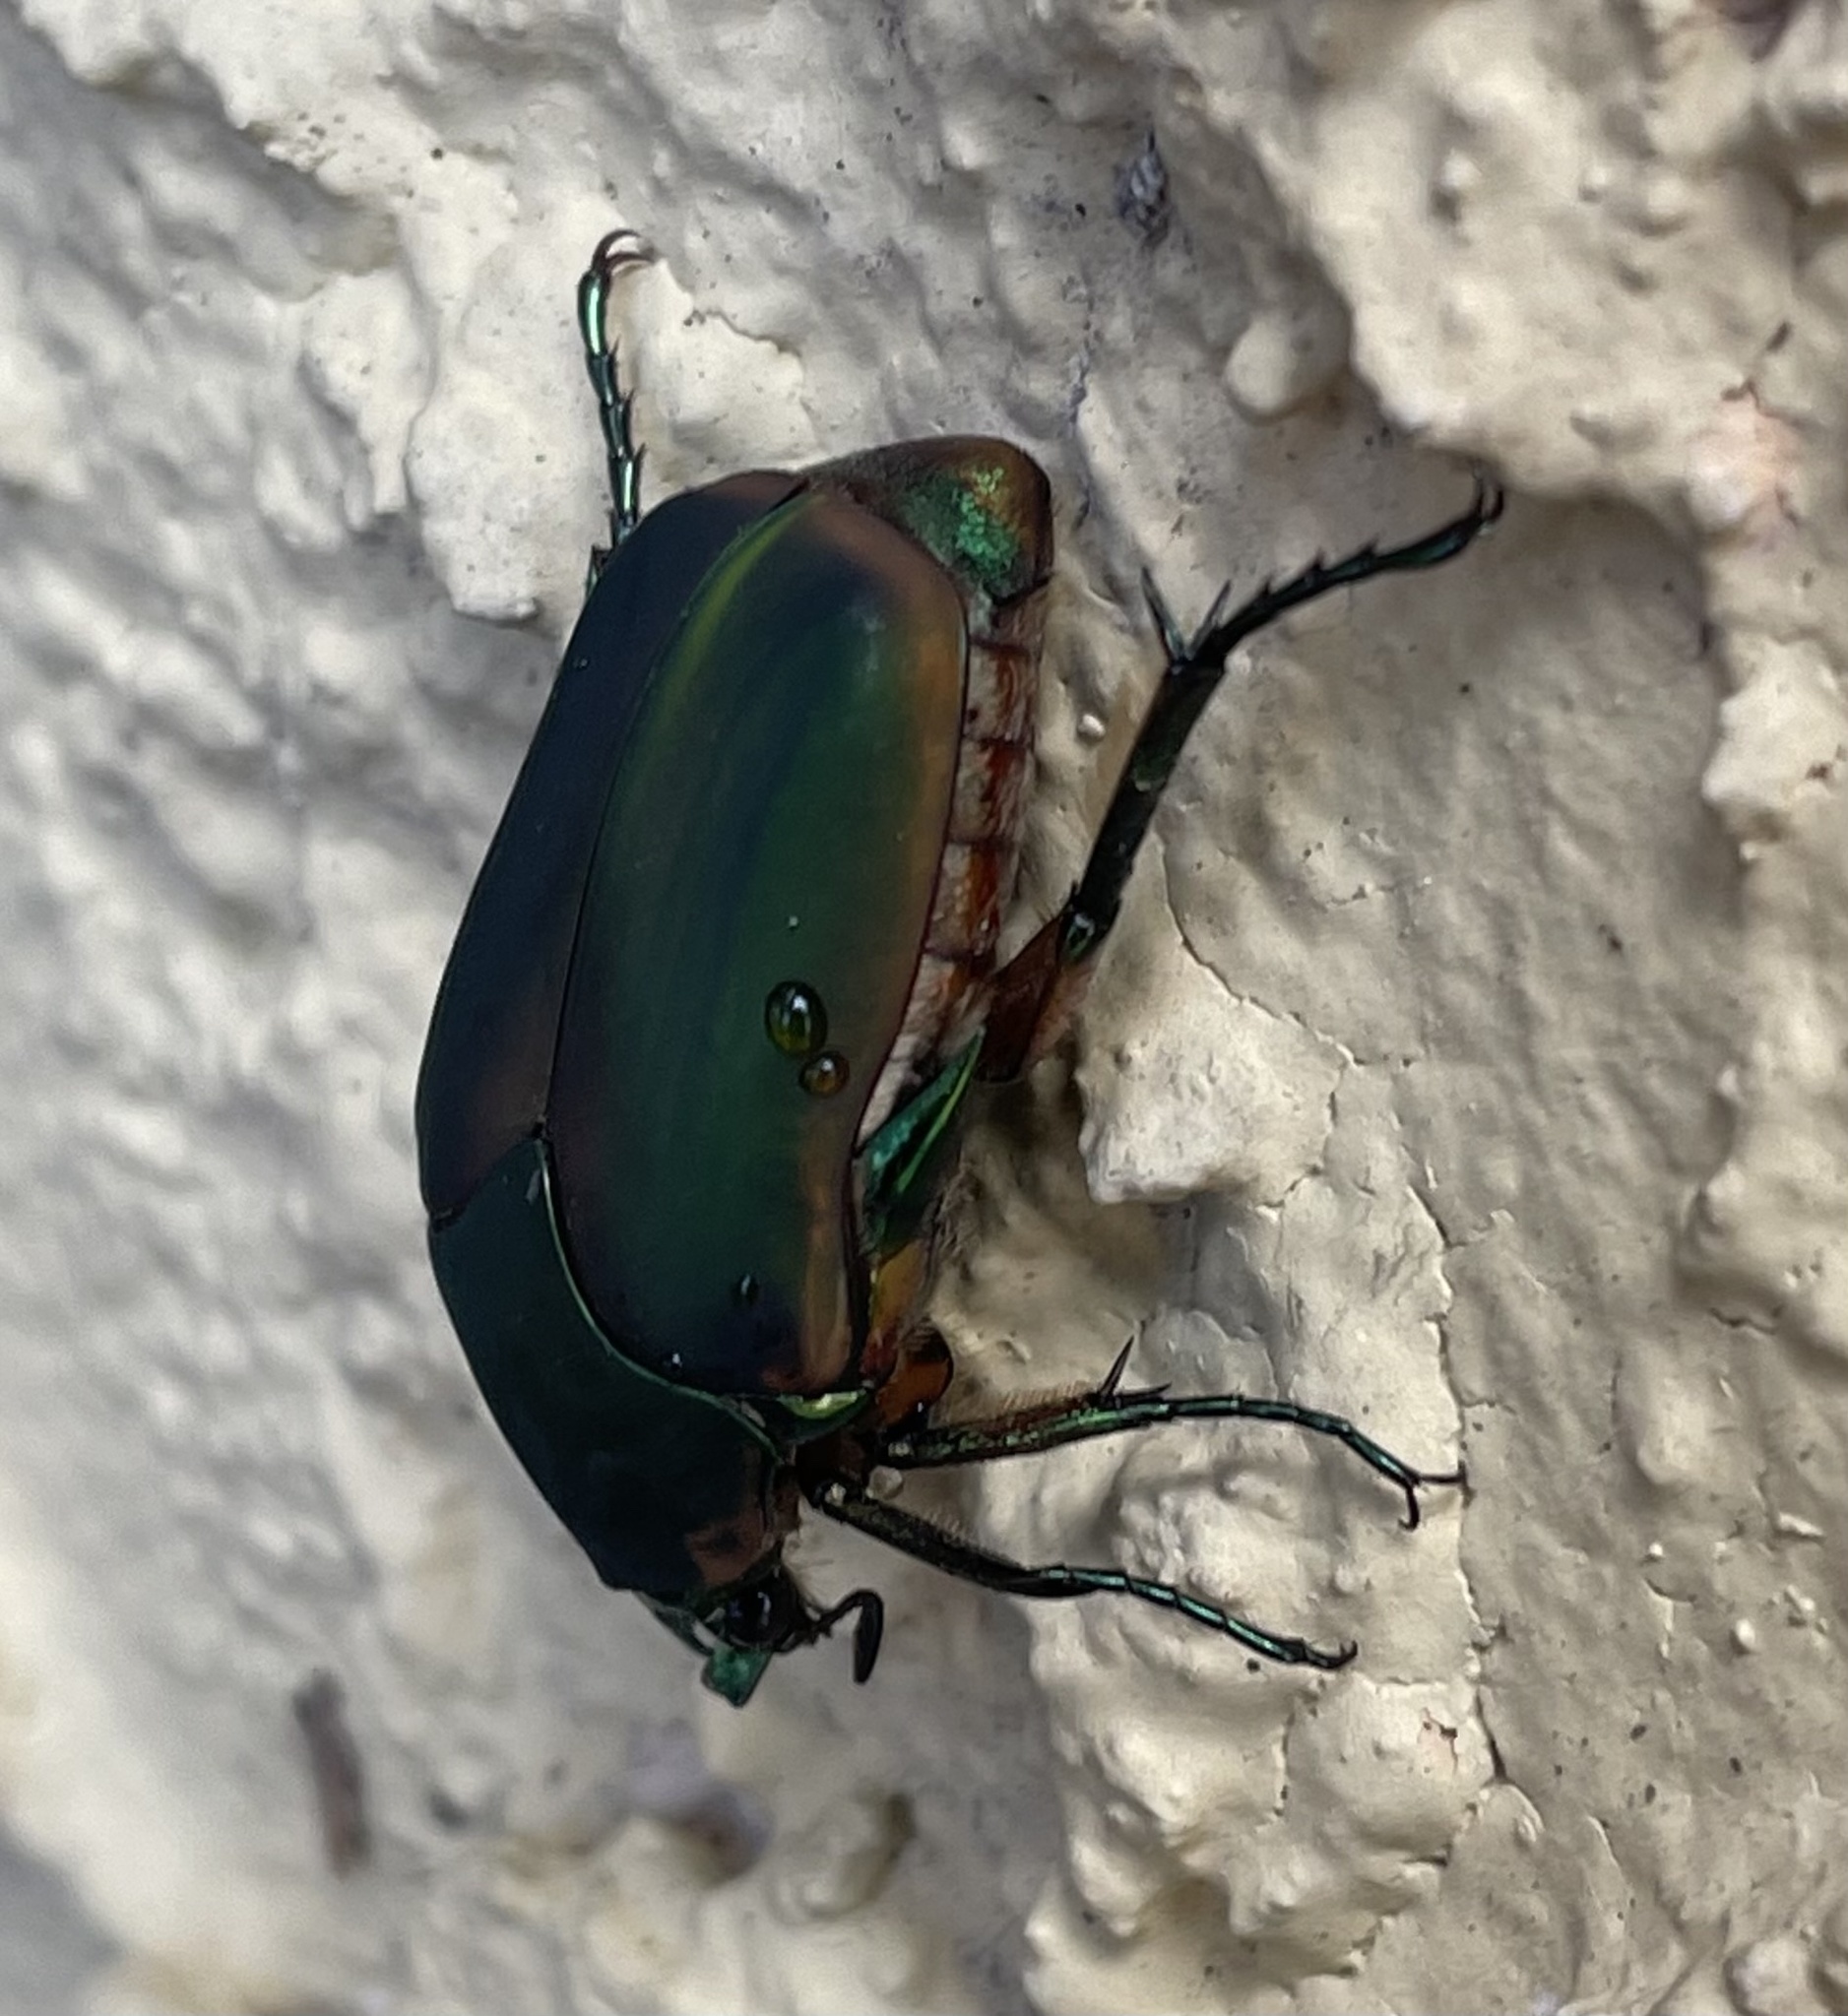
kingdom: Animalia
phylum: Arthropoda
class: Insecta
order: Coleoptera
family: Scarabaeidae
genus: Cotinis
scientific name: Cotinis nitida
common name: Common green june beetle
